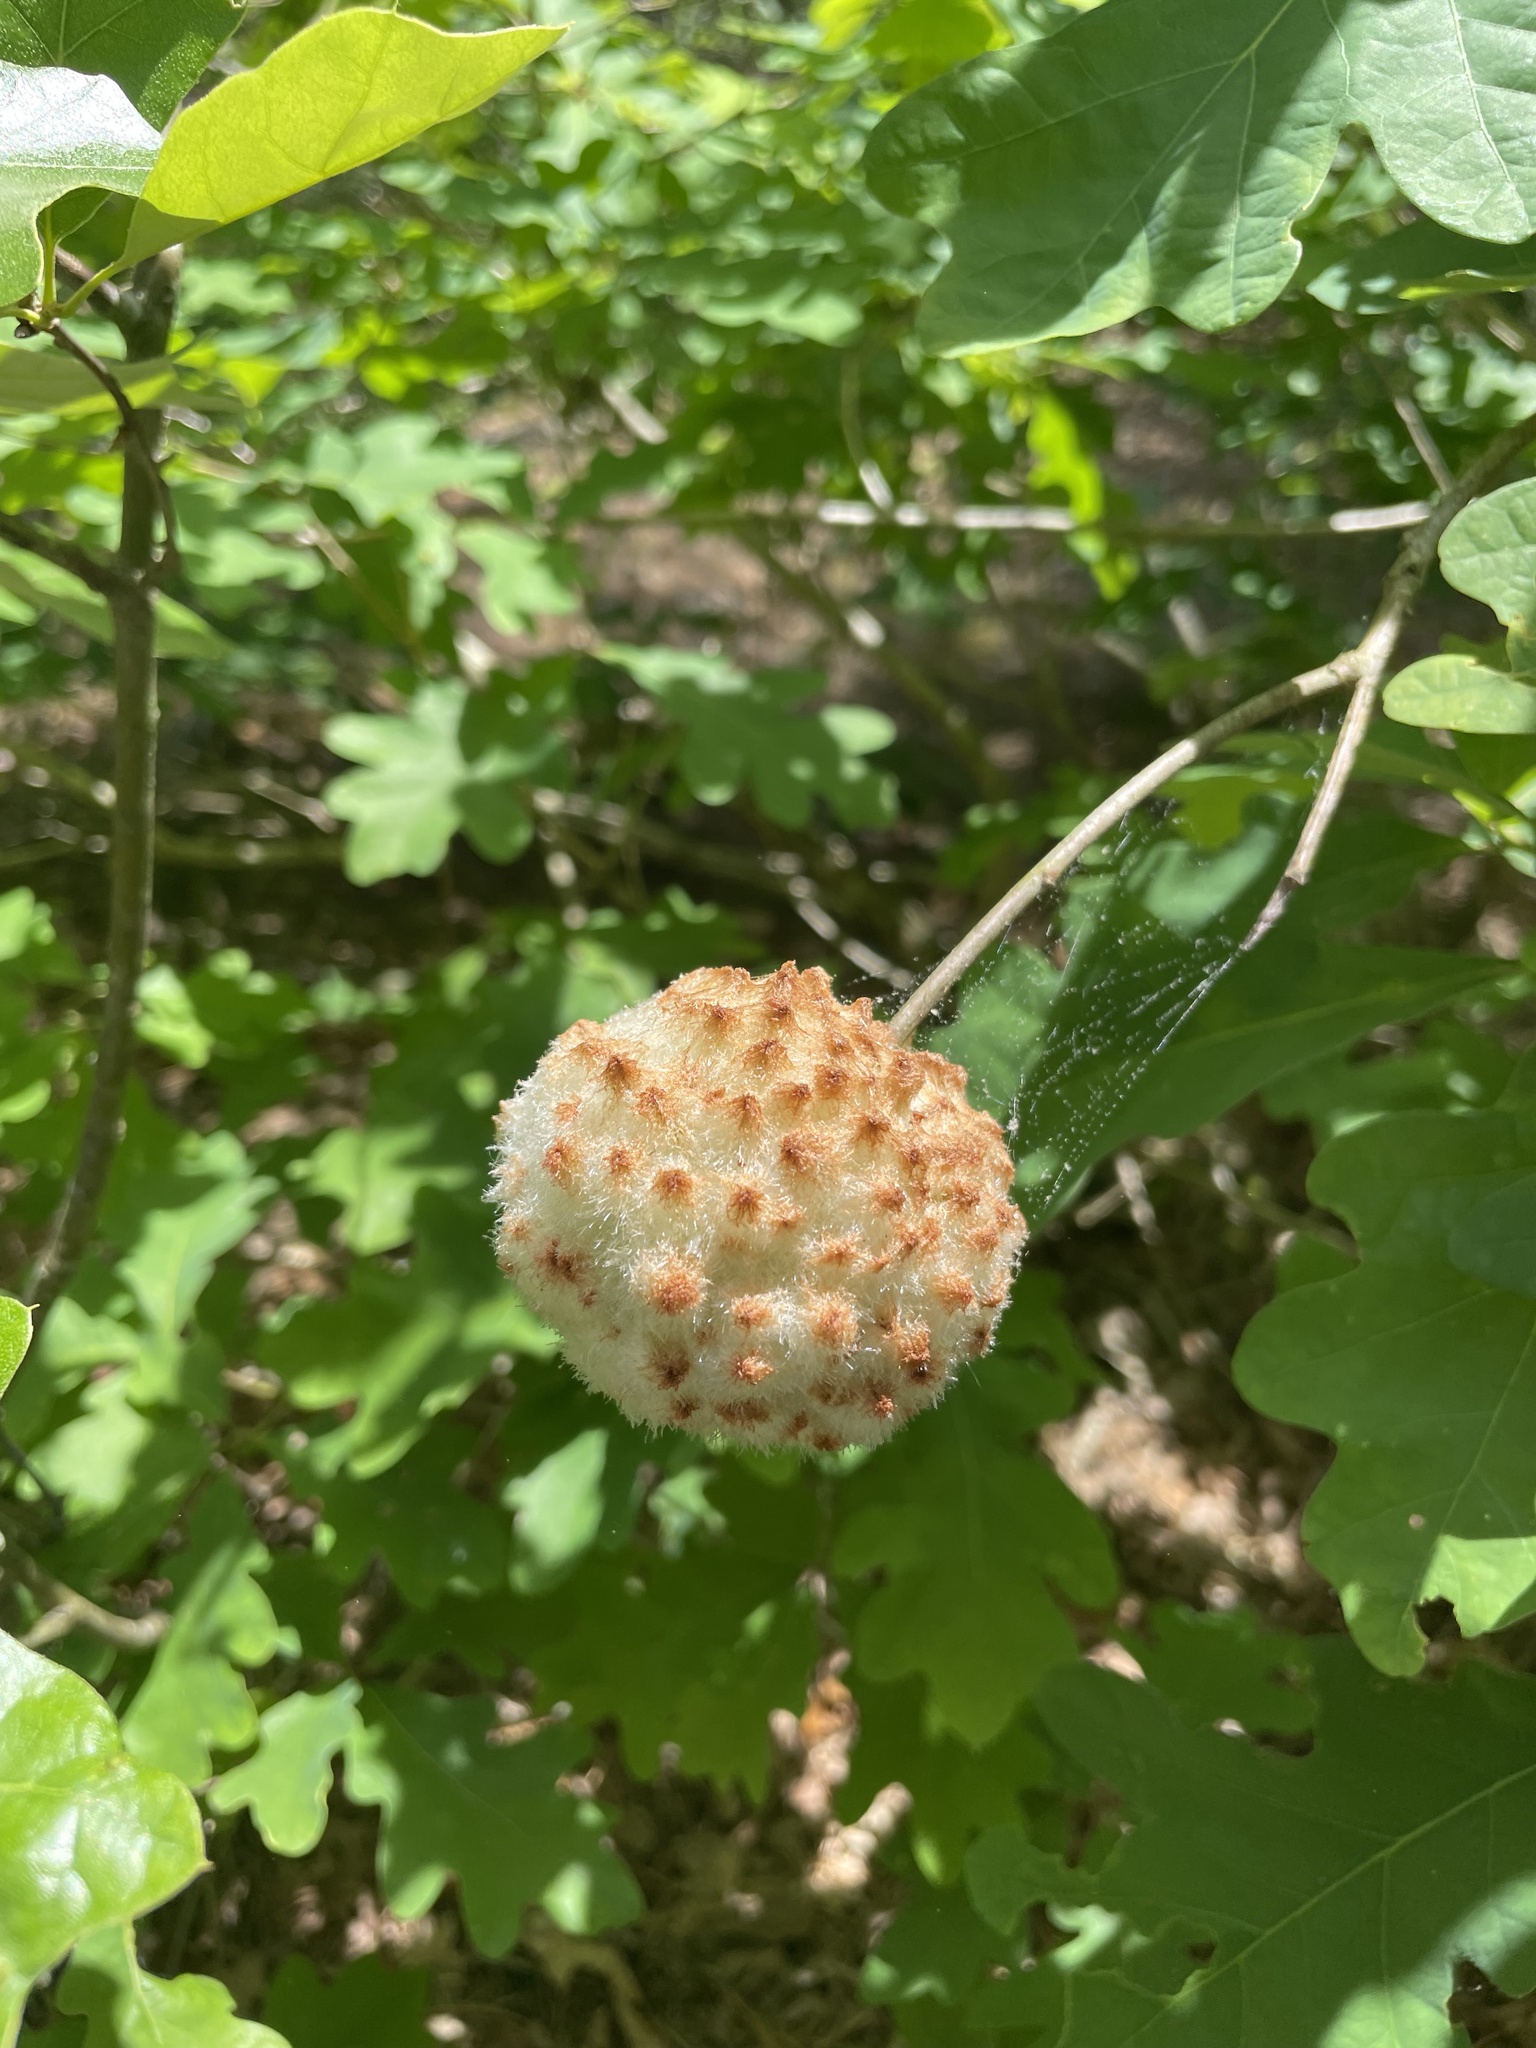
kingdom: Animalia
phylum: Arthropoda
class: Insecta
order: Hymenoptera
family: Cynipidae
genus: Callirhytis
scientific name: Callirhytis
